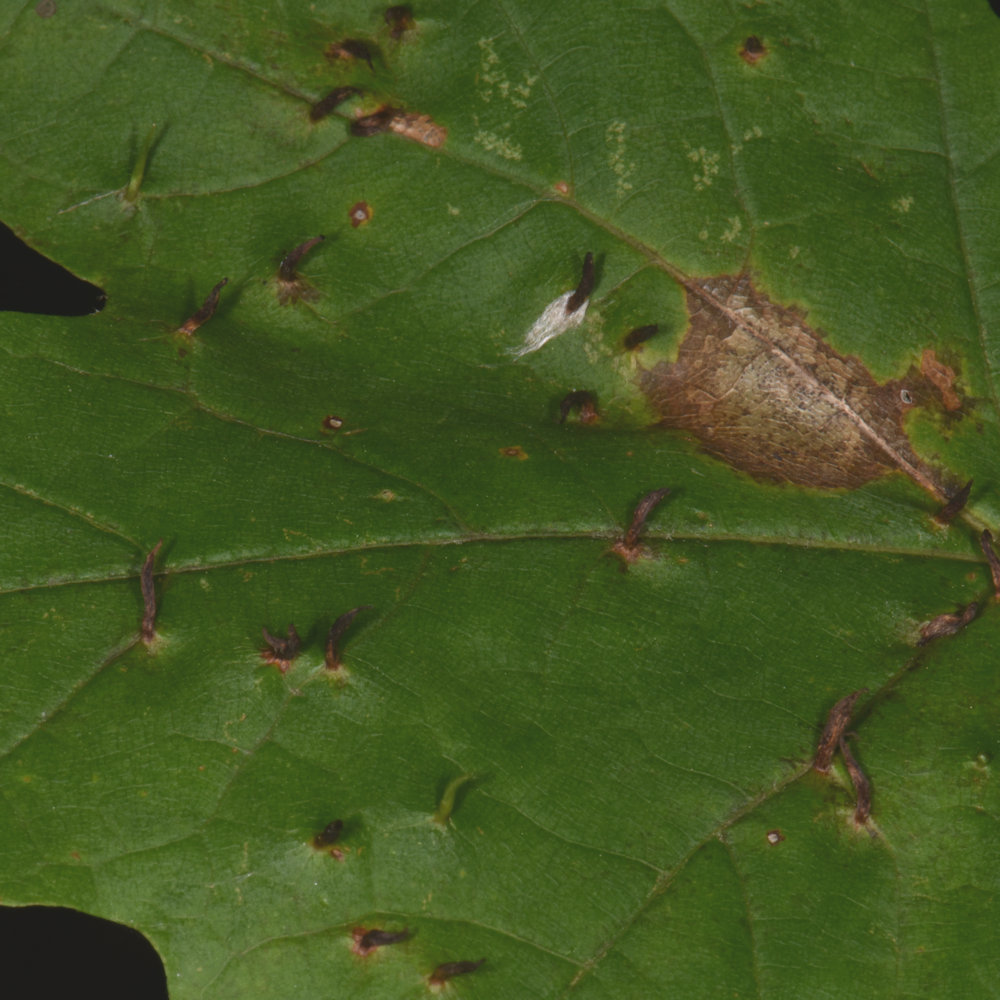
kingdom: Animalia
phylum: Arthropoda
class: Arachnida
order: Trombidiformes
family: Eriophyidae
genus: Vasates
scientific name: Vasates aceriscrumena
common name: Maple spindle gall mite
